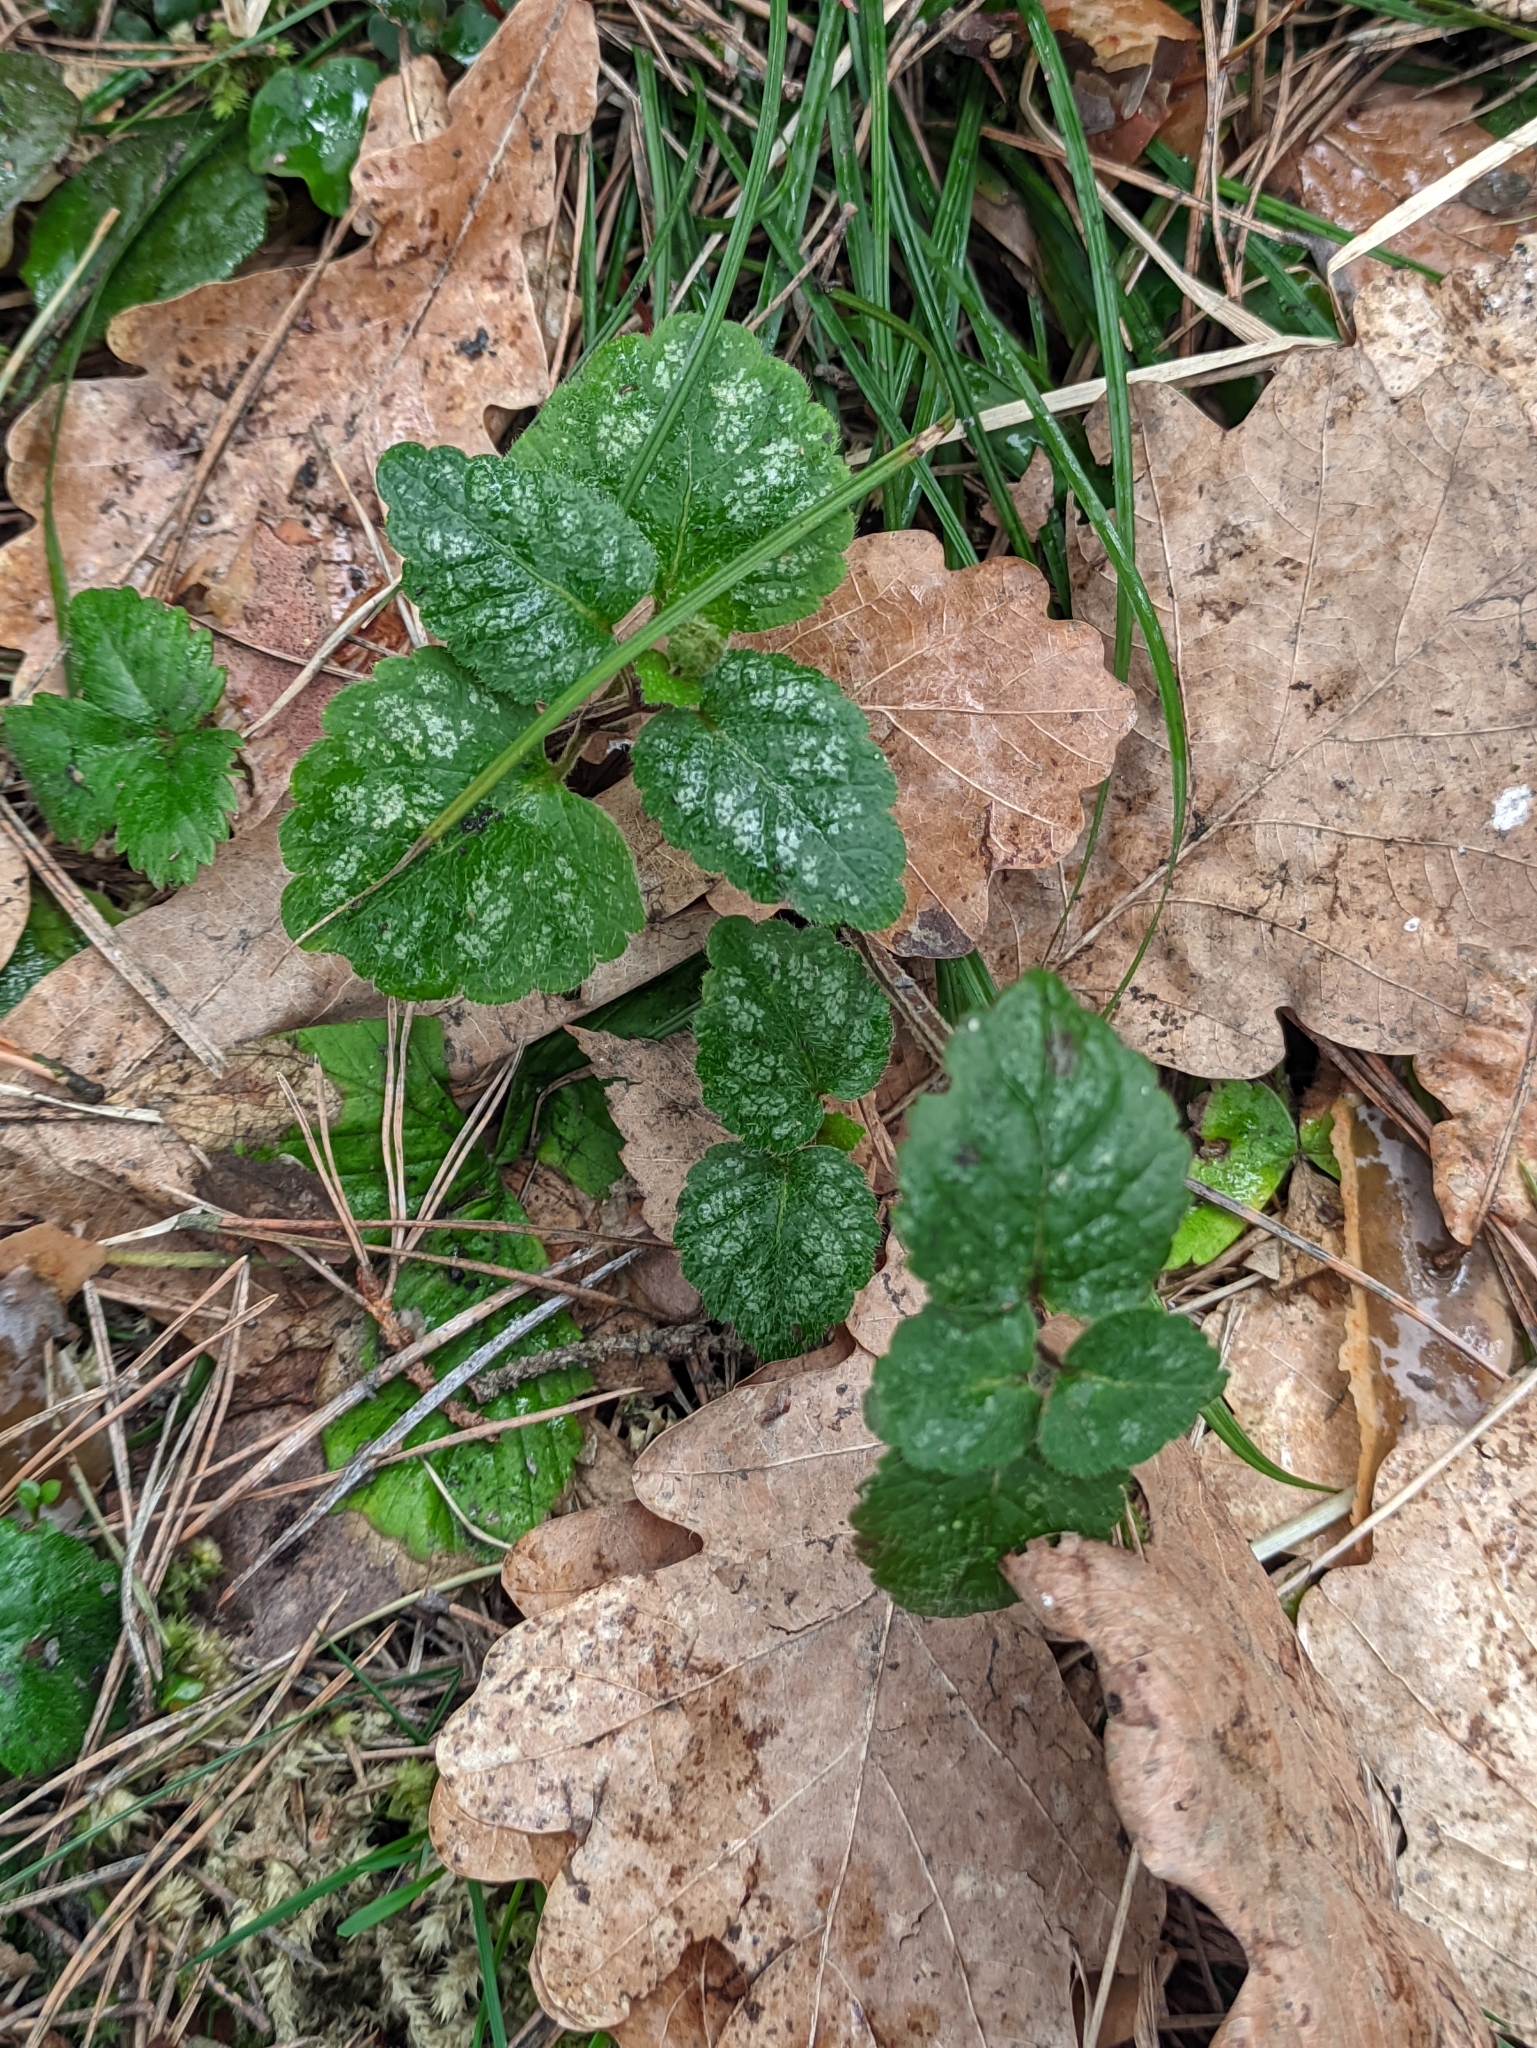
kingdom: Plantae
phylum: Tracheophyta
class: Magnoliopsida
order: Lamiales
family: Lamiaceae
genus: Lamium
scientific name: Lamium galeobdolon
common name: Yellow archangel
